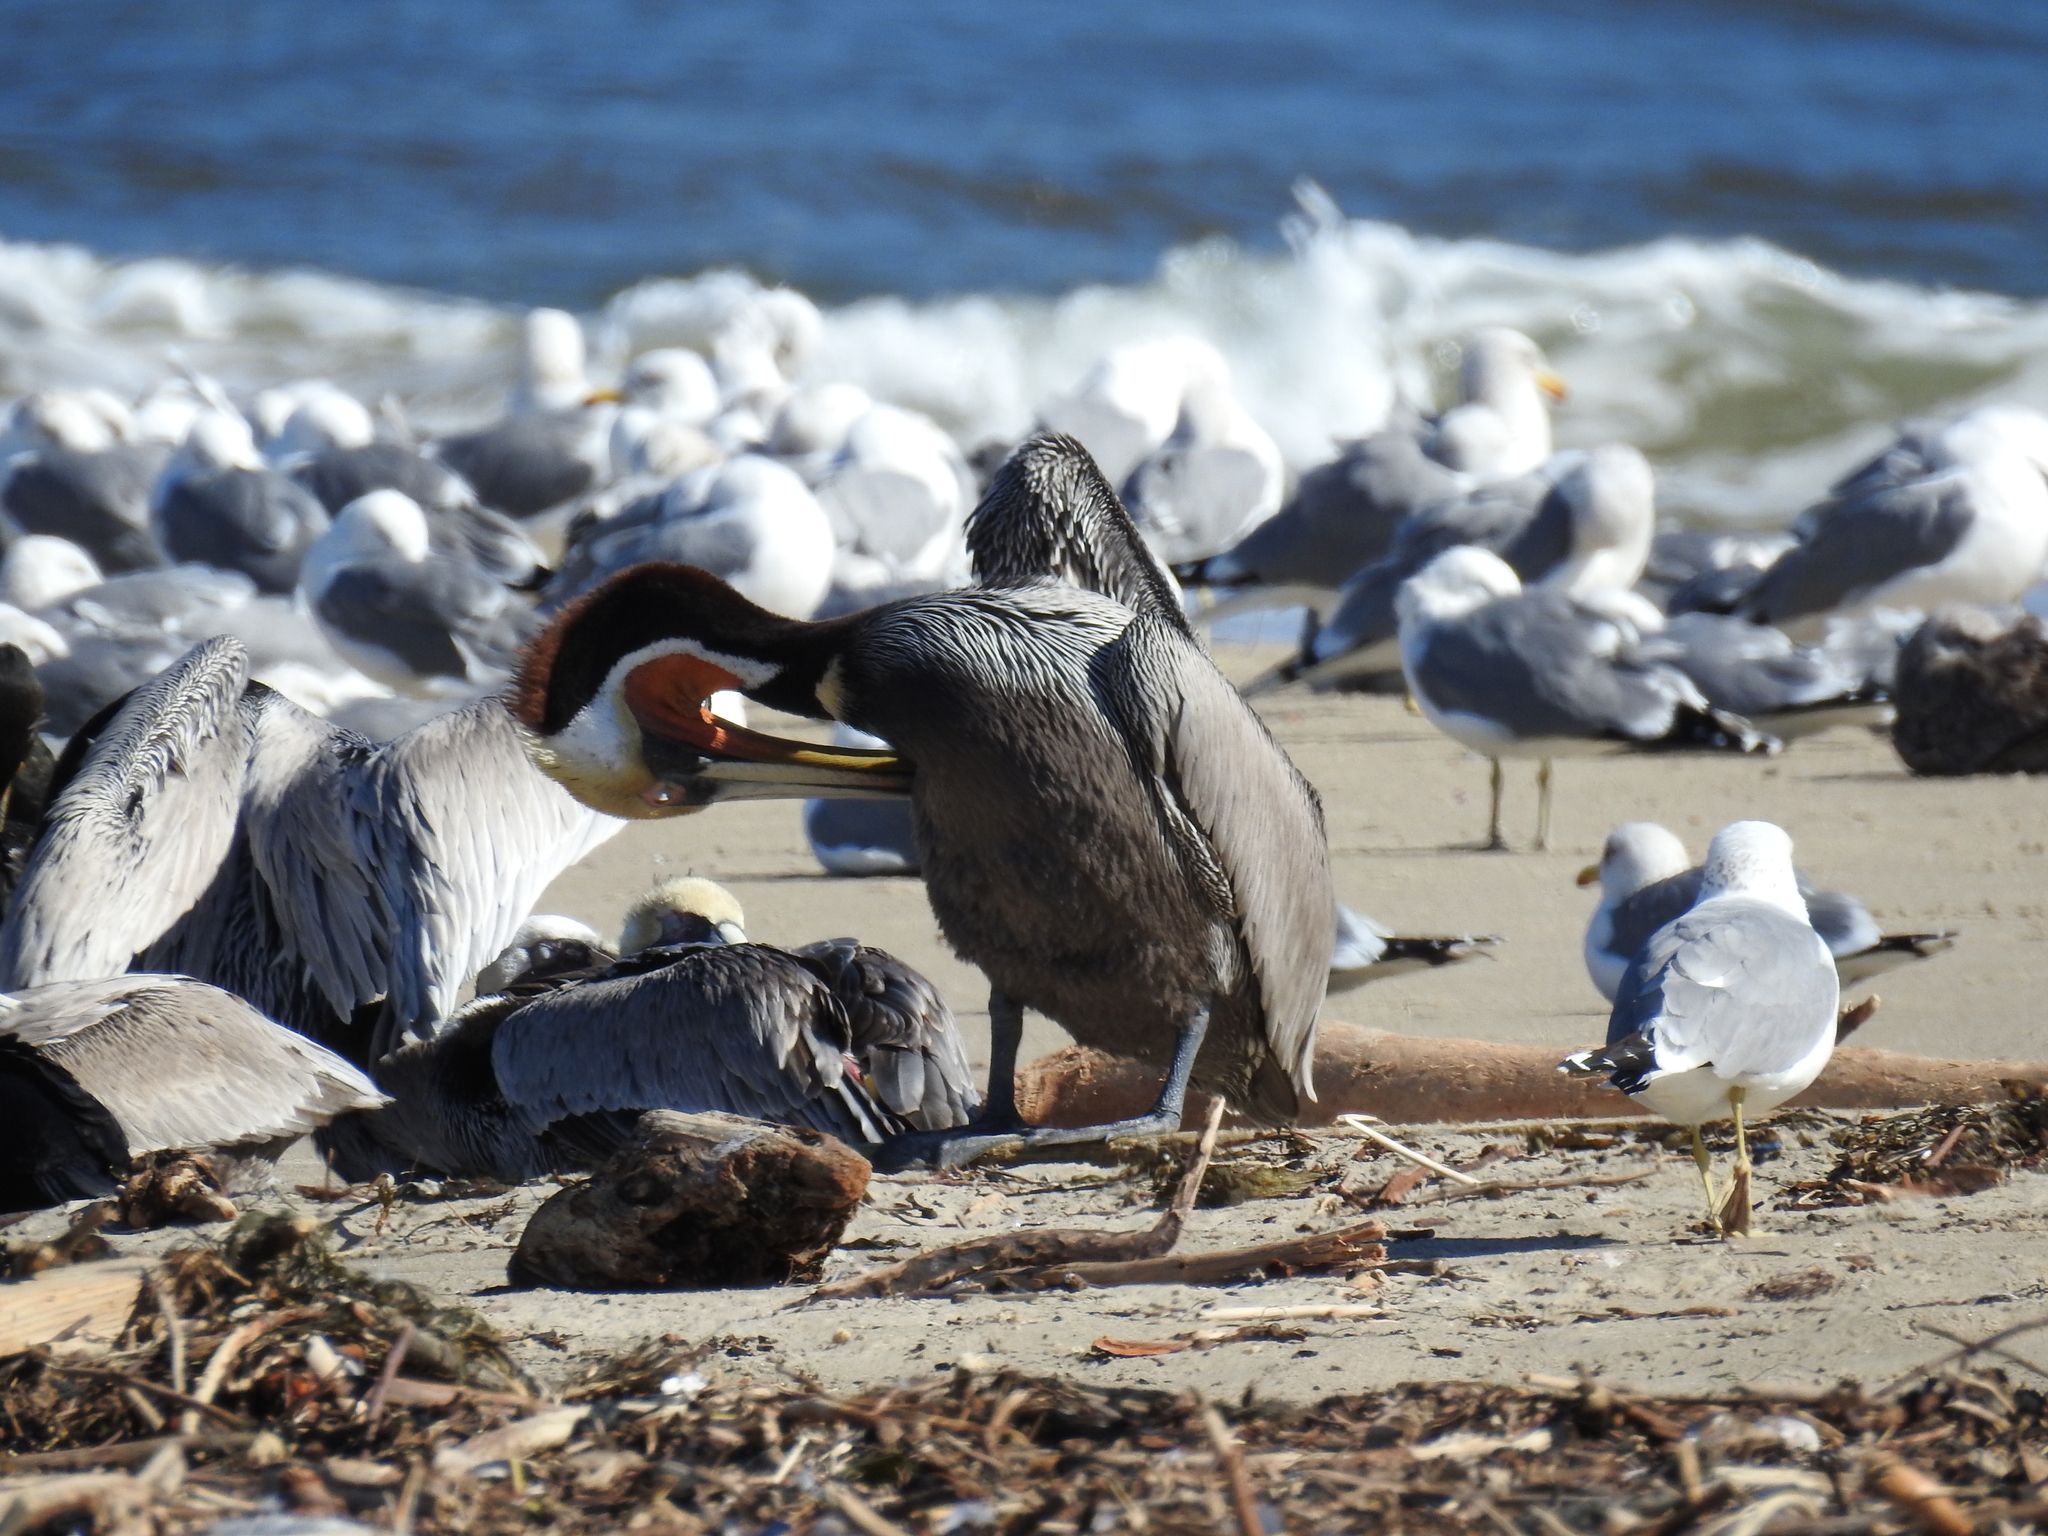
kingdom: Animalia
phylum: Chordata
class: Aves
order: Pelecaniformes
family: Pelecanidae
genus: Pelecanus
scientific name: Pelecanus occidentalis
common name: Brown pelican
